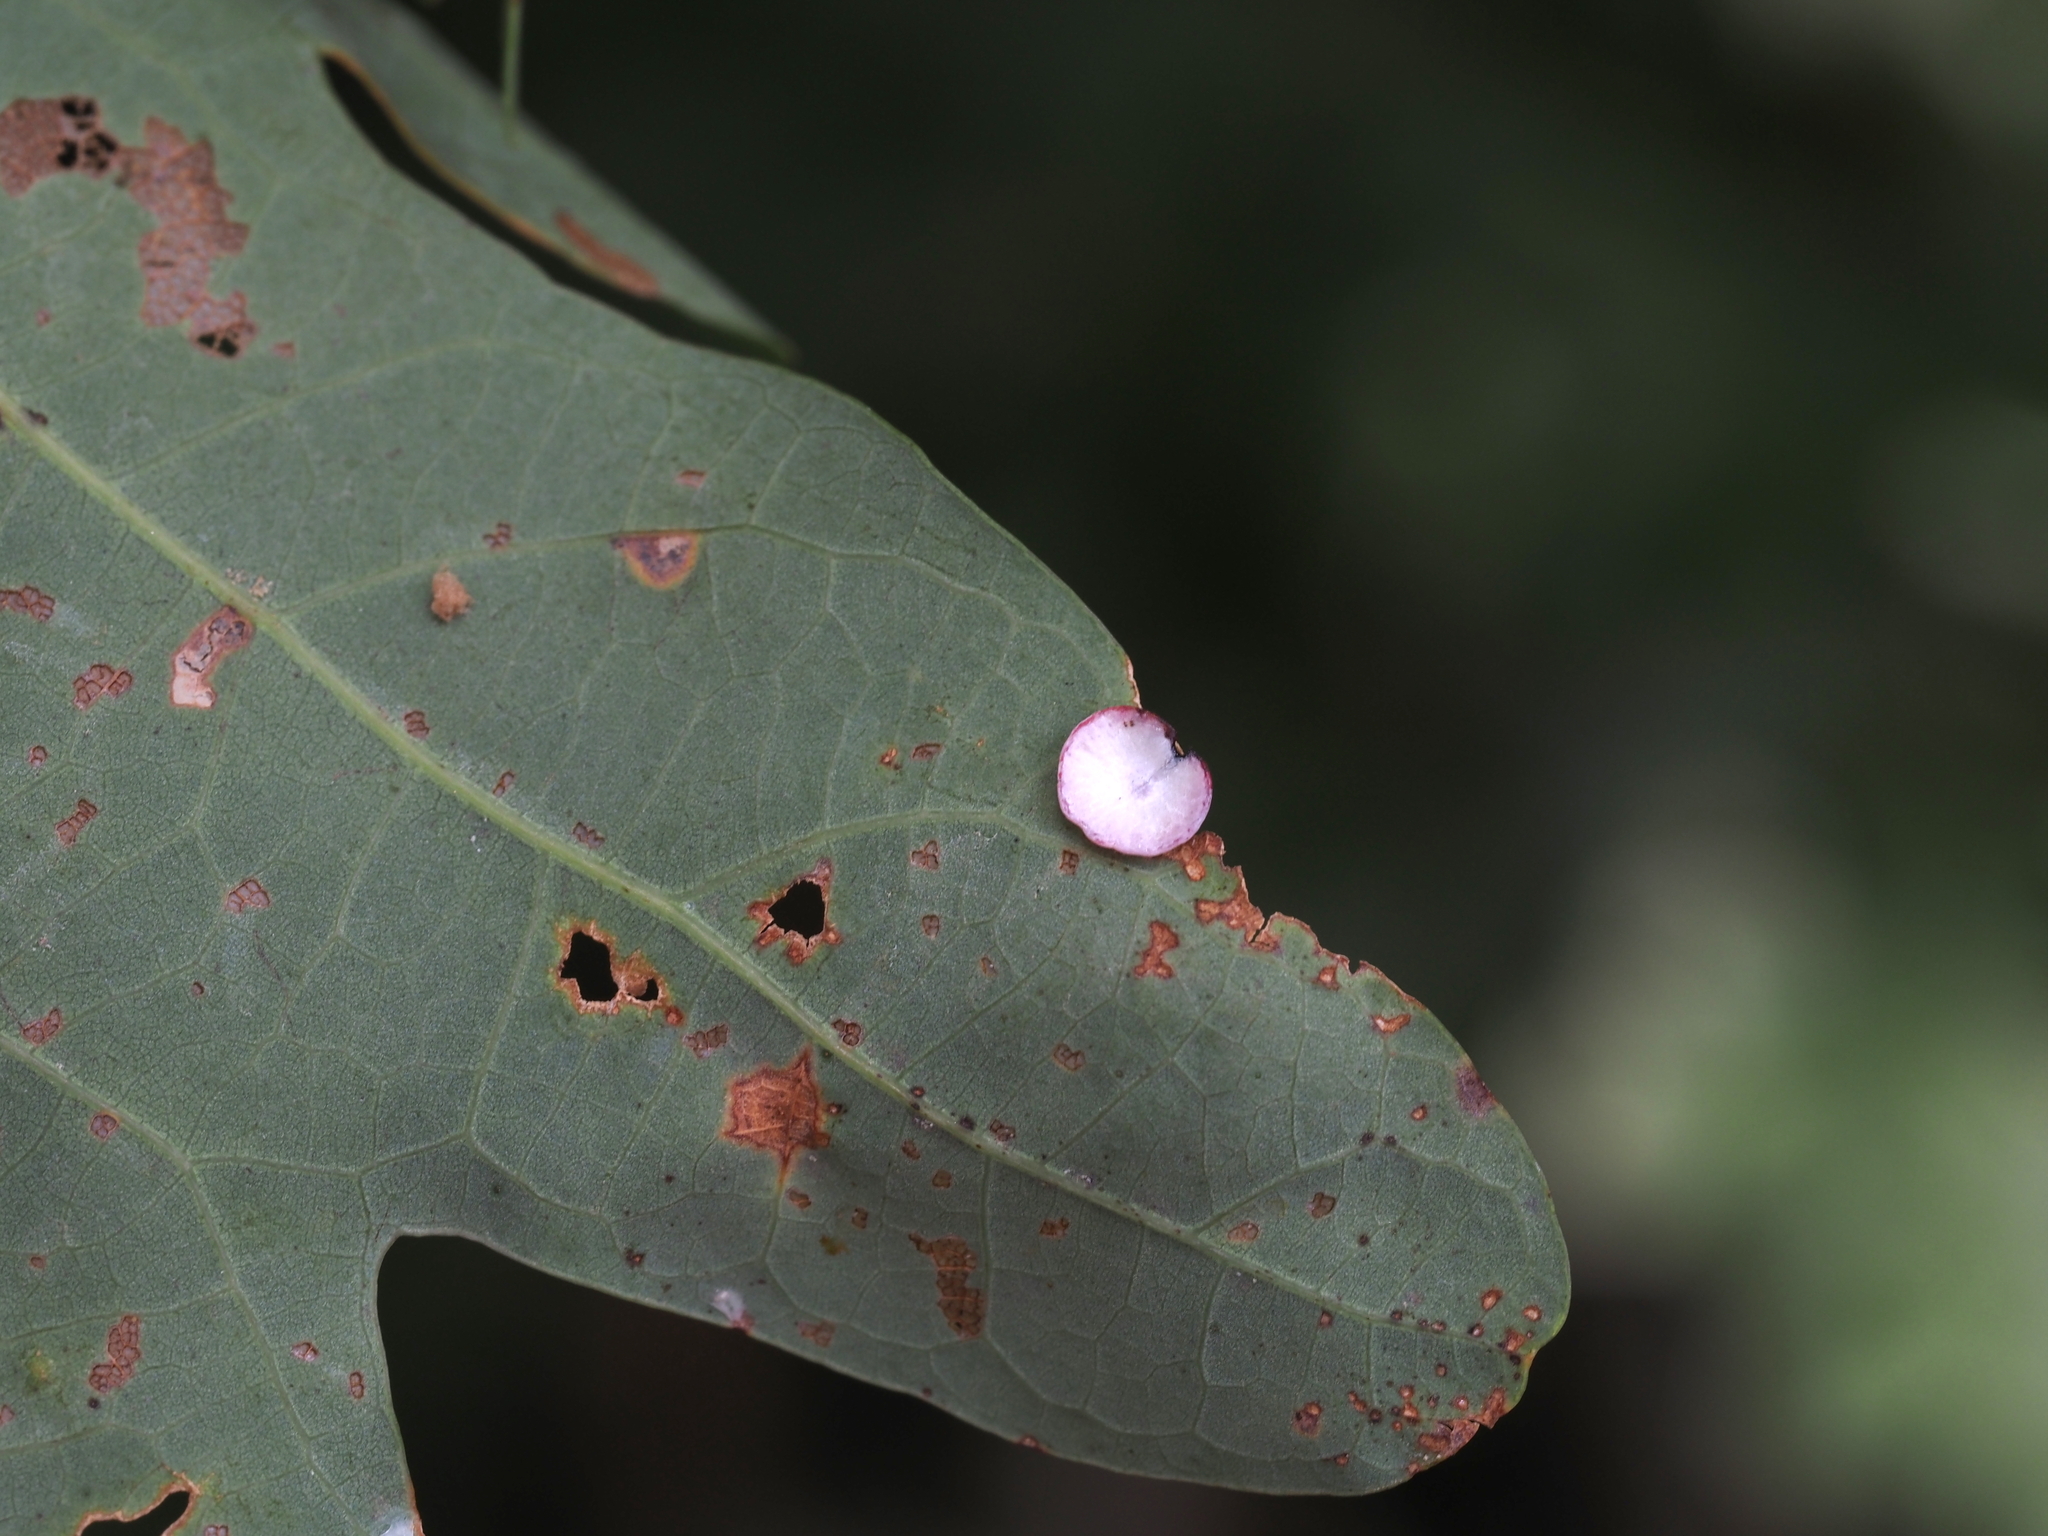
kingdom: Animalia
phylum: Arthropoda
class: Insecta
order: Hymenoptera
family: Cynipidae
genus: Phylloteras
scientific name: Phylloteras poculum
